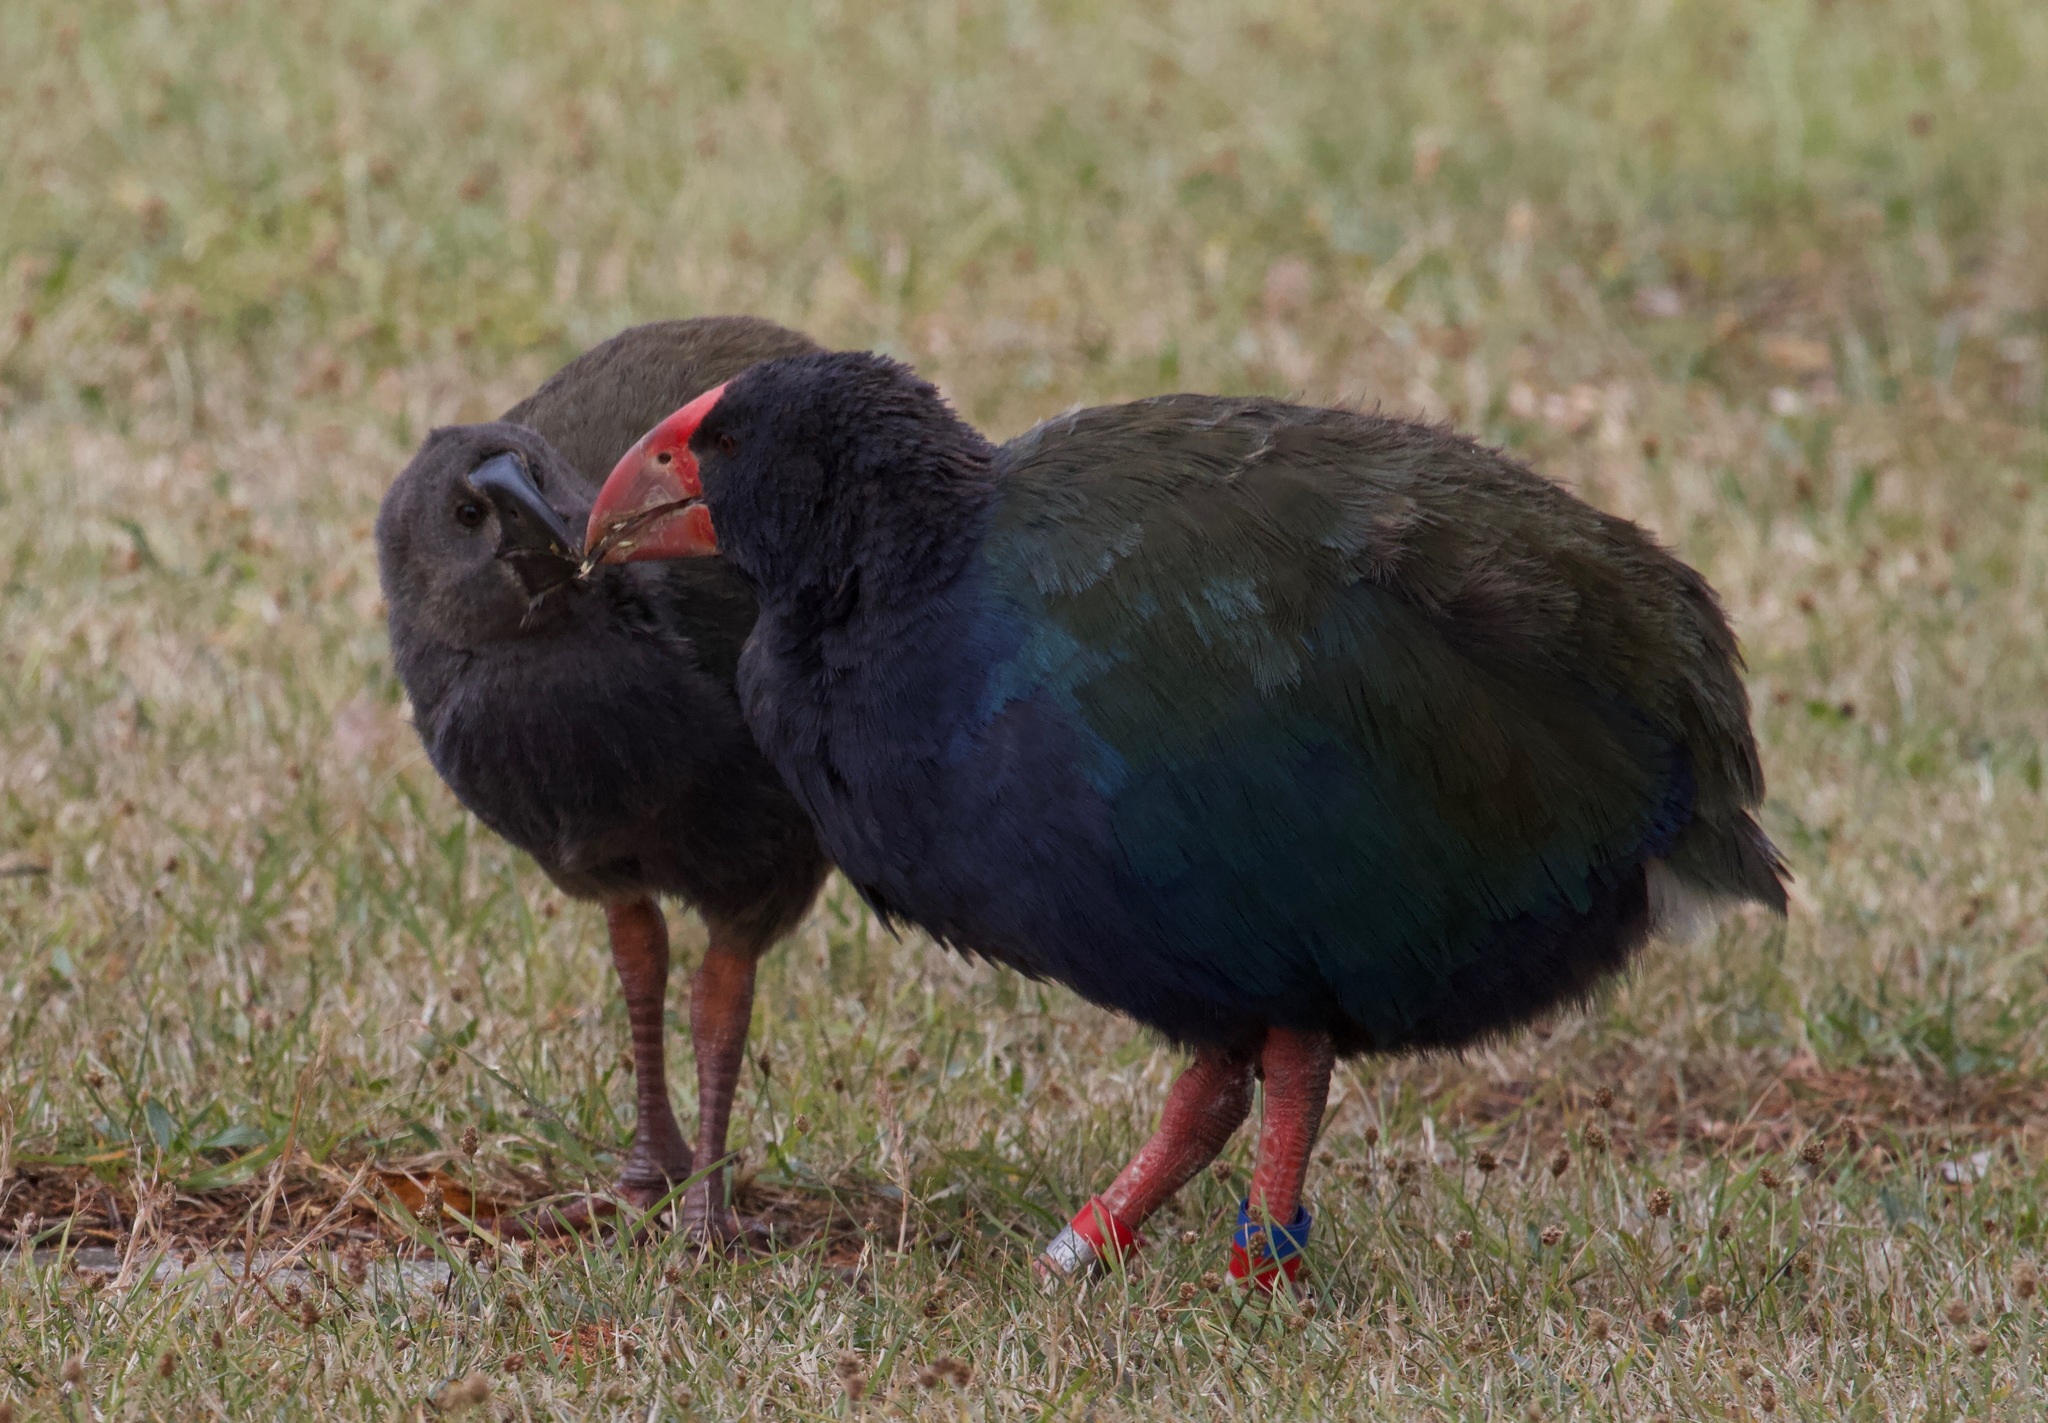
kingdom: Animalia
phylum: Chordata
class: Aves
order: Gruiformes
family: Rallidae
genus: Porphyrio
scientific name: Porphyrio hochstetteri
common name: South island takahe
